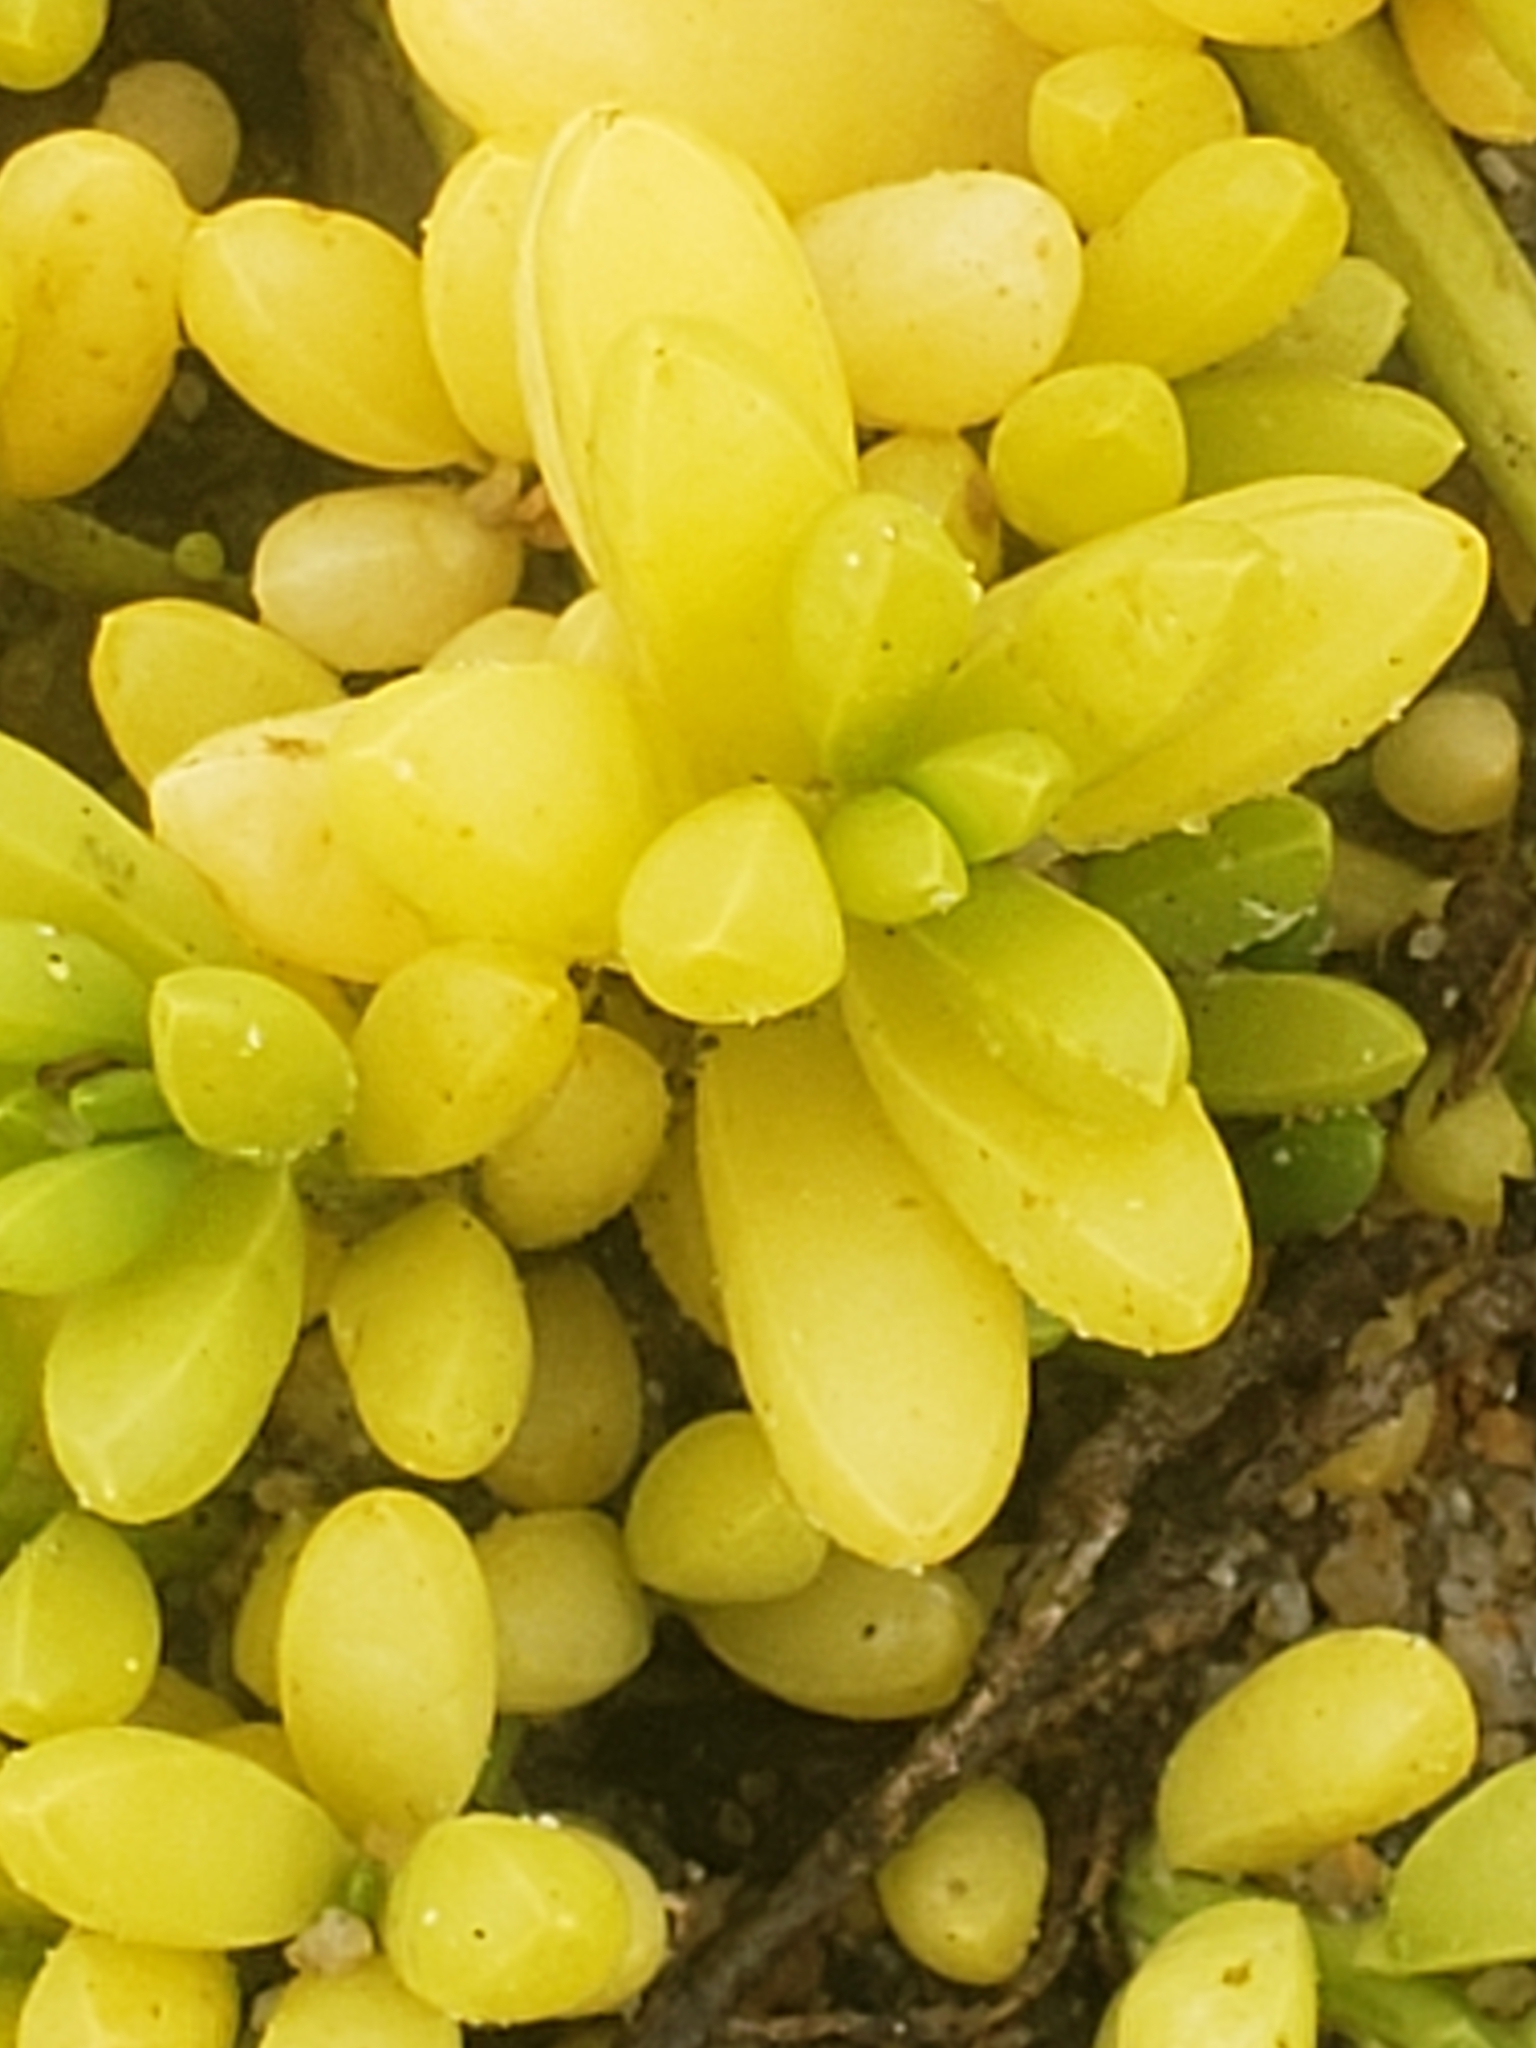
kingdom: Plantae
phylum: Tracheophyta
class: Magnoliopsida
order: Brassicales
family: Bataceae
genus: Batis
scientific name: Batis maritima
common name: Turtleweed
